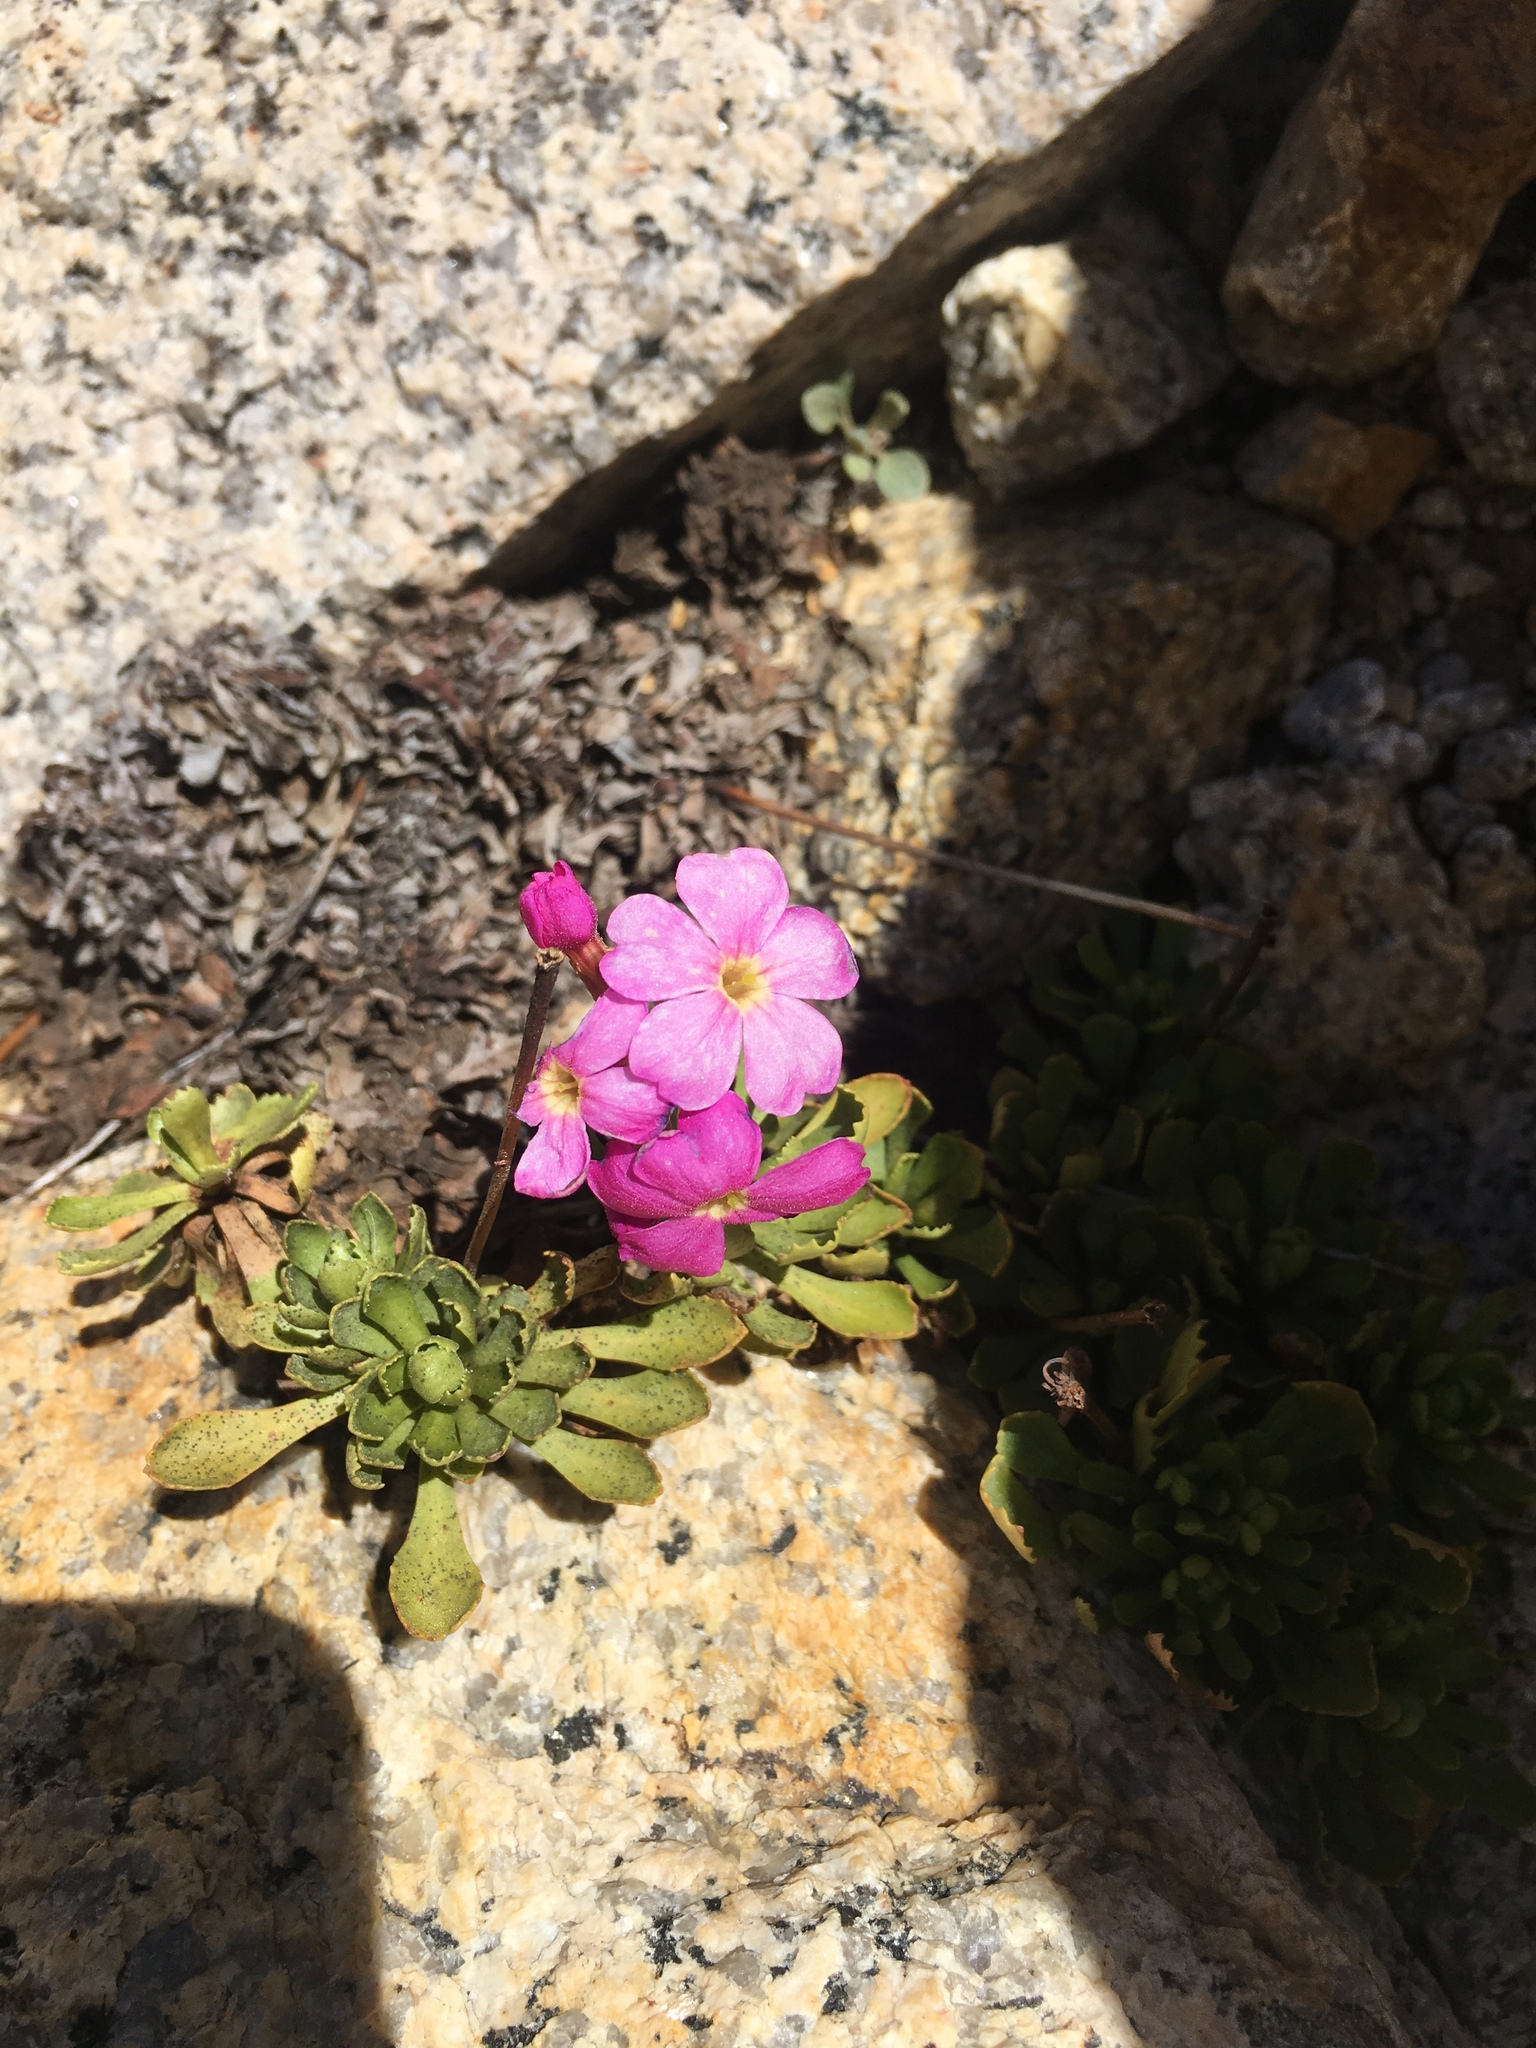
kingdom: Plantae
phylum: Tracheophyta
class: Magnoliopsida
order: Ericales
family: Primulaceae
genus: Primula
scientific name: Primula suffrutescens
